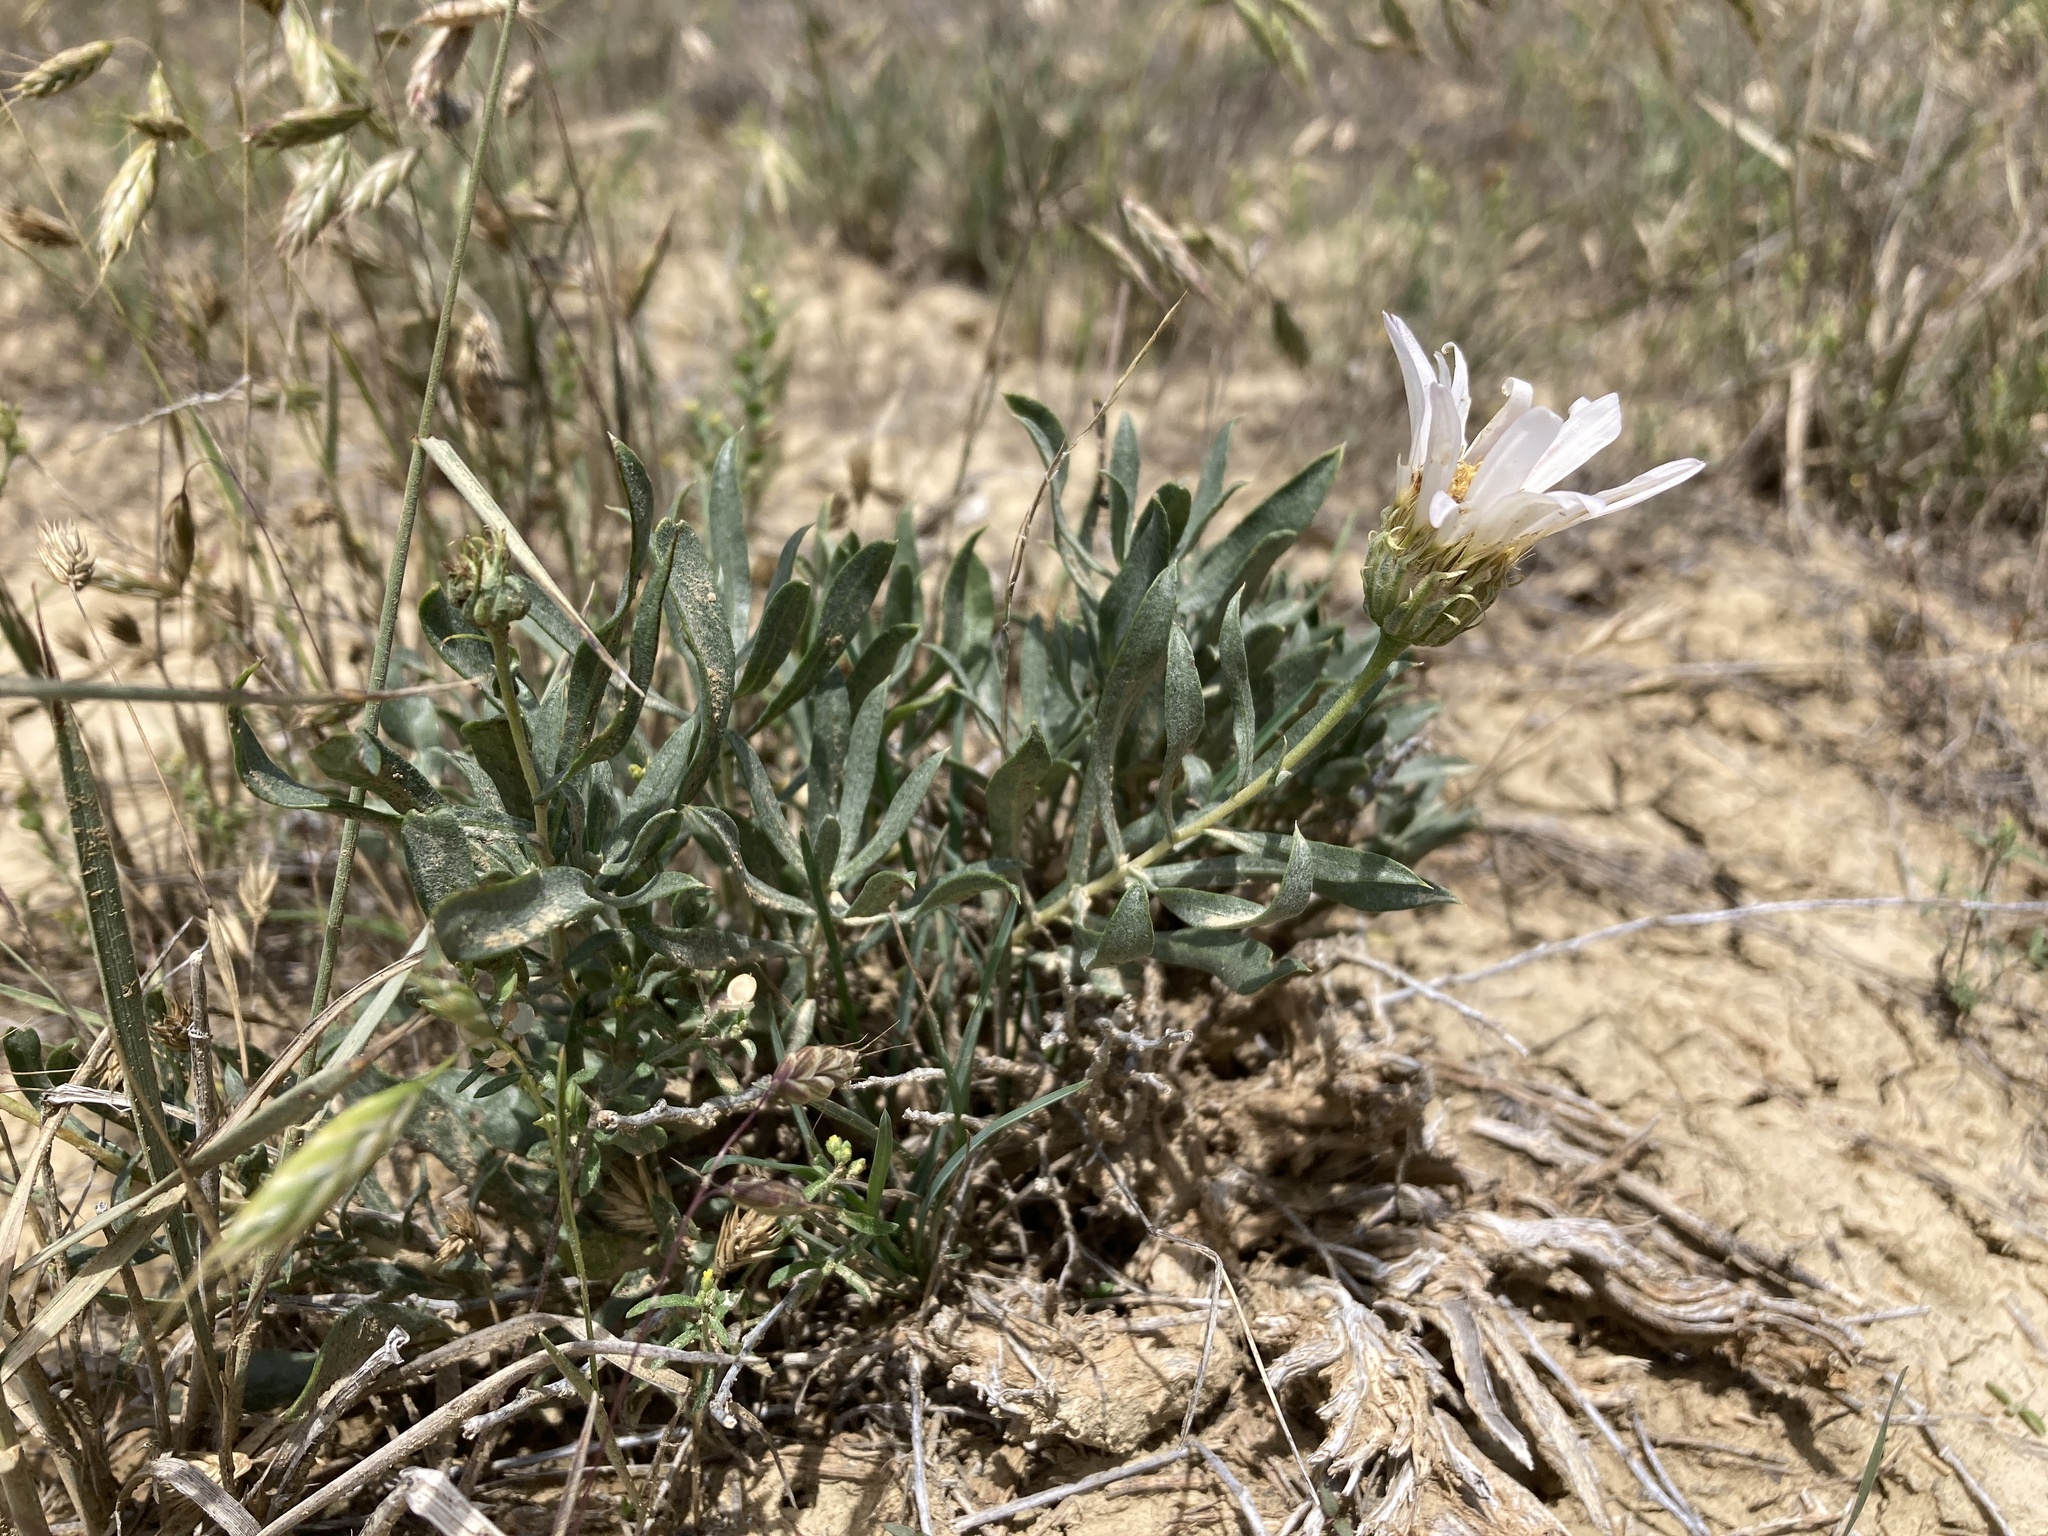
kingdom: Plantae
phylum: Tracheophyta
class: Magnoliopsida
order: Asterales
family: Asteraceae
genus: Xylorhiza
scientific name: Xylorhiza glabriuscula
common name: Smooth woody-aster
